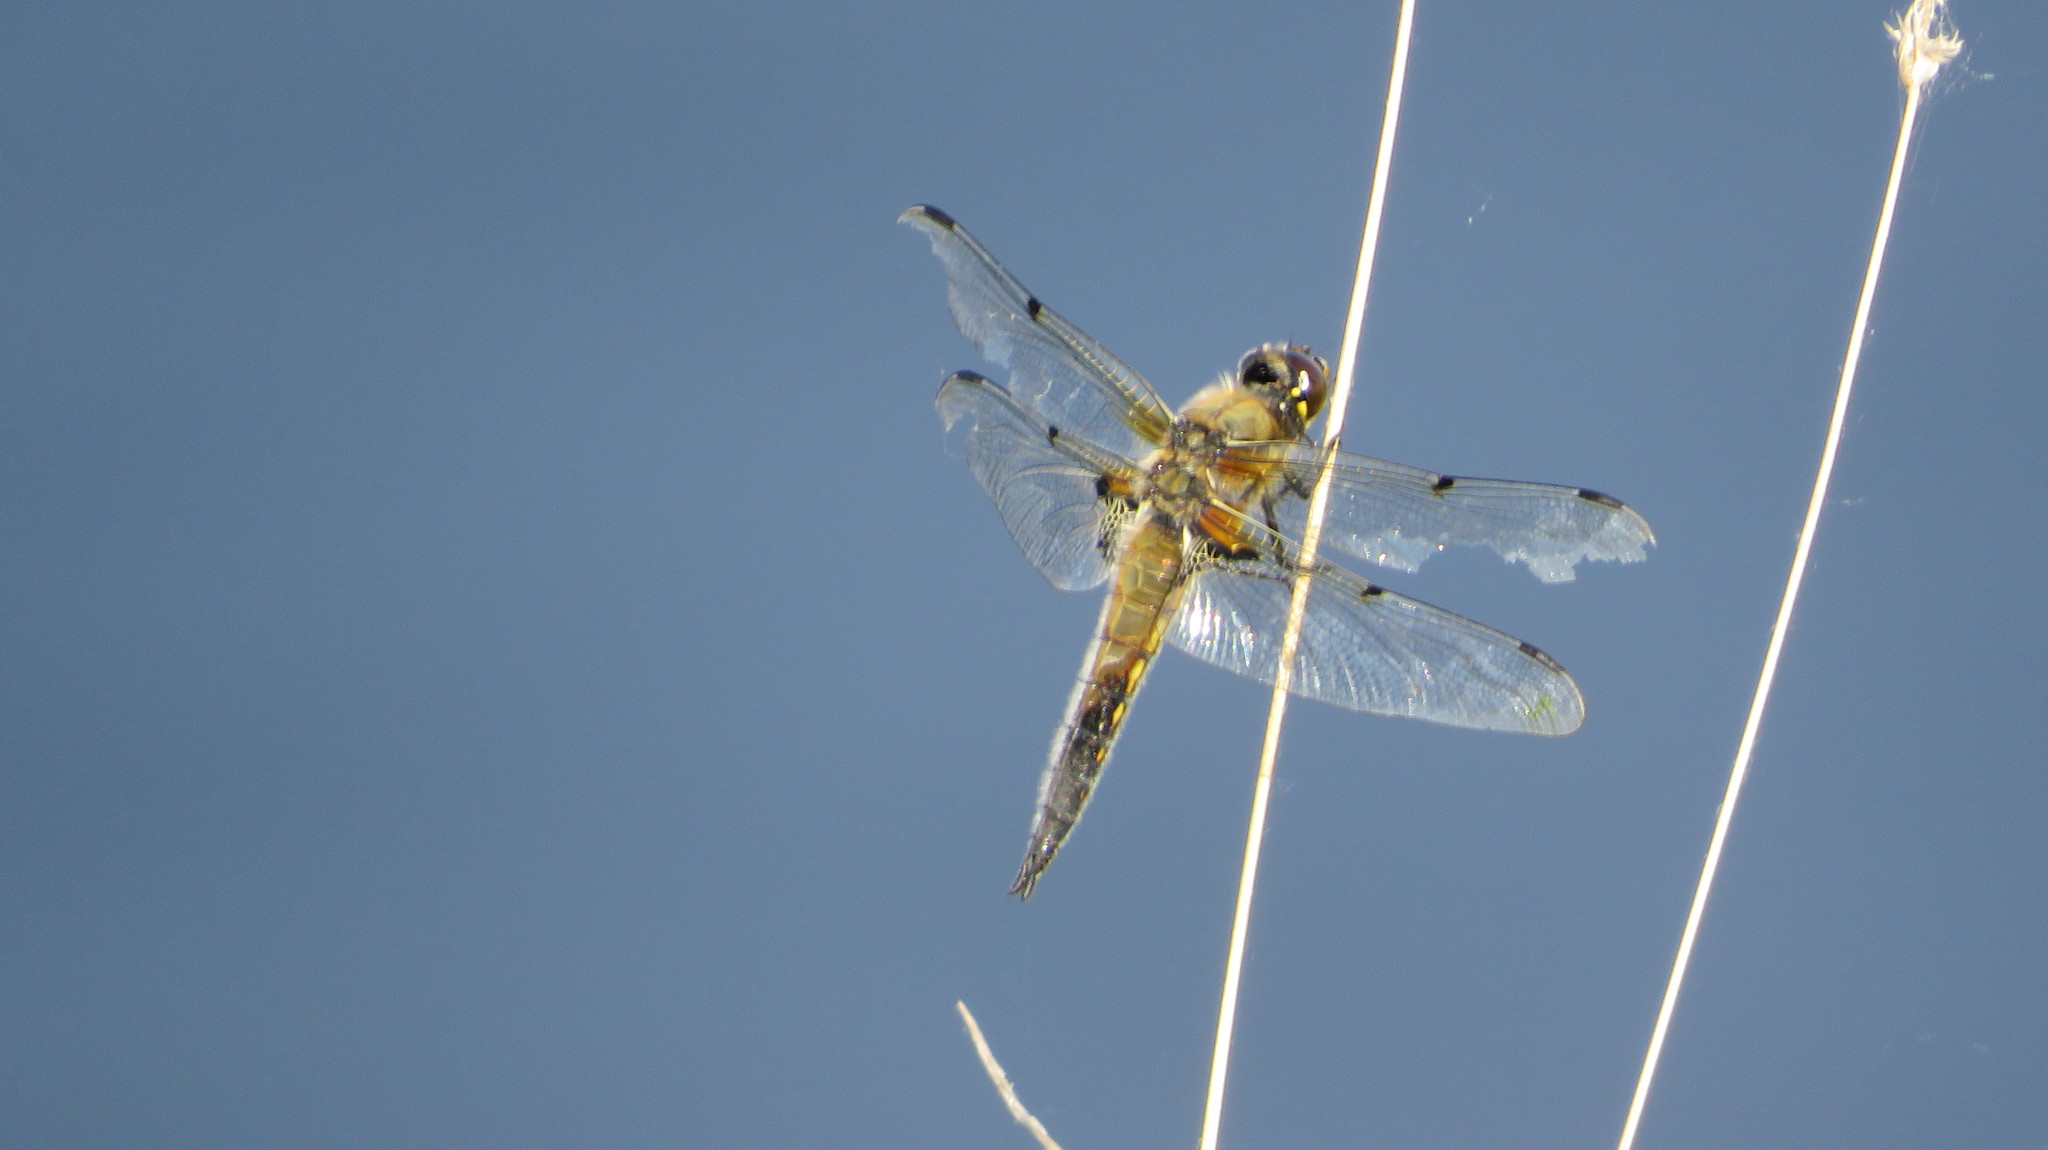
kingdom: Animalia
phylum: Arthropoda
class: Insecta
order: Odonata
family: Libellulidae
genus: Libellula
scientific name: Libellula quadrimaculata
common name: Four-spotted chaser
